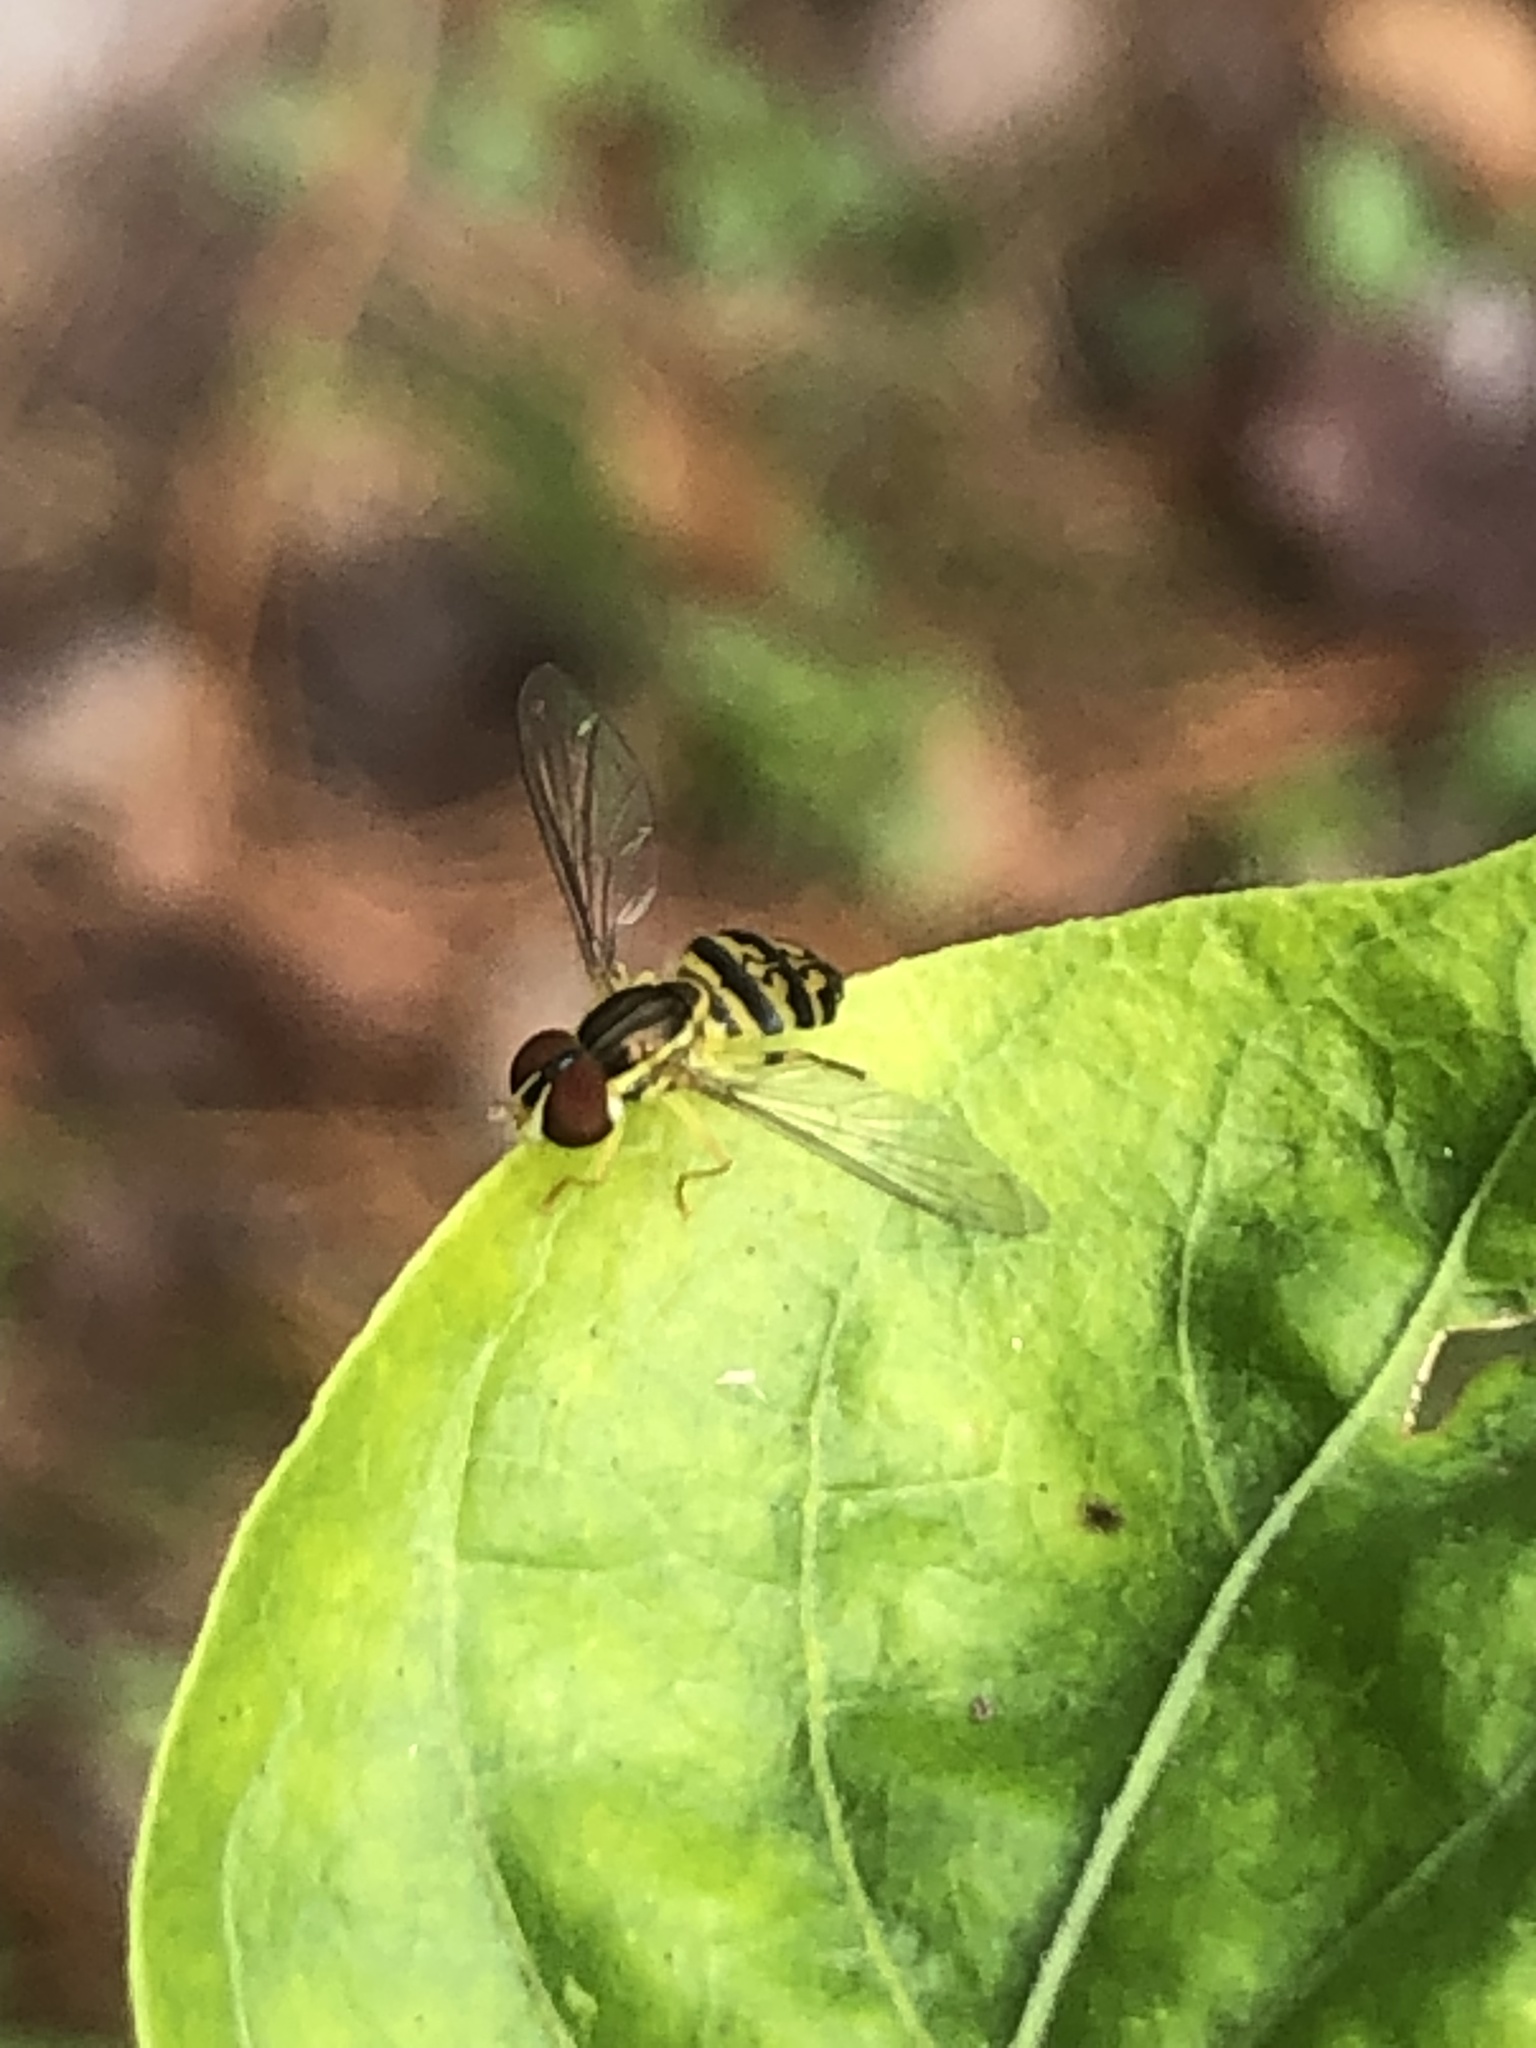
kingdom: Animalia
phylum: Arthropoda
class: Insecta
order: Diptera
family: Syrphidae
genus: Toxomerus
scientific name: Toxomerus geminatus
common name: Eastern calligrapher
